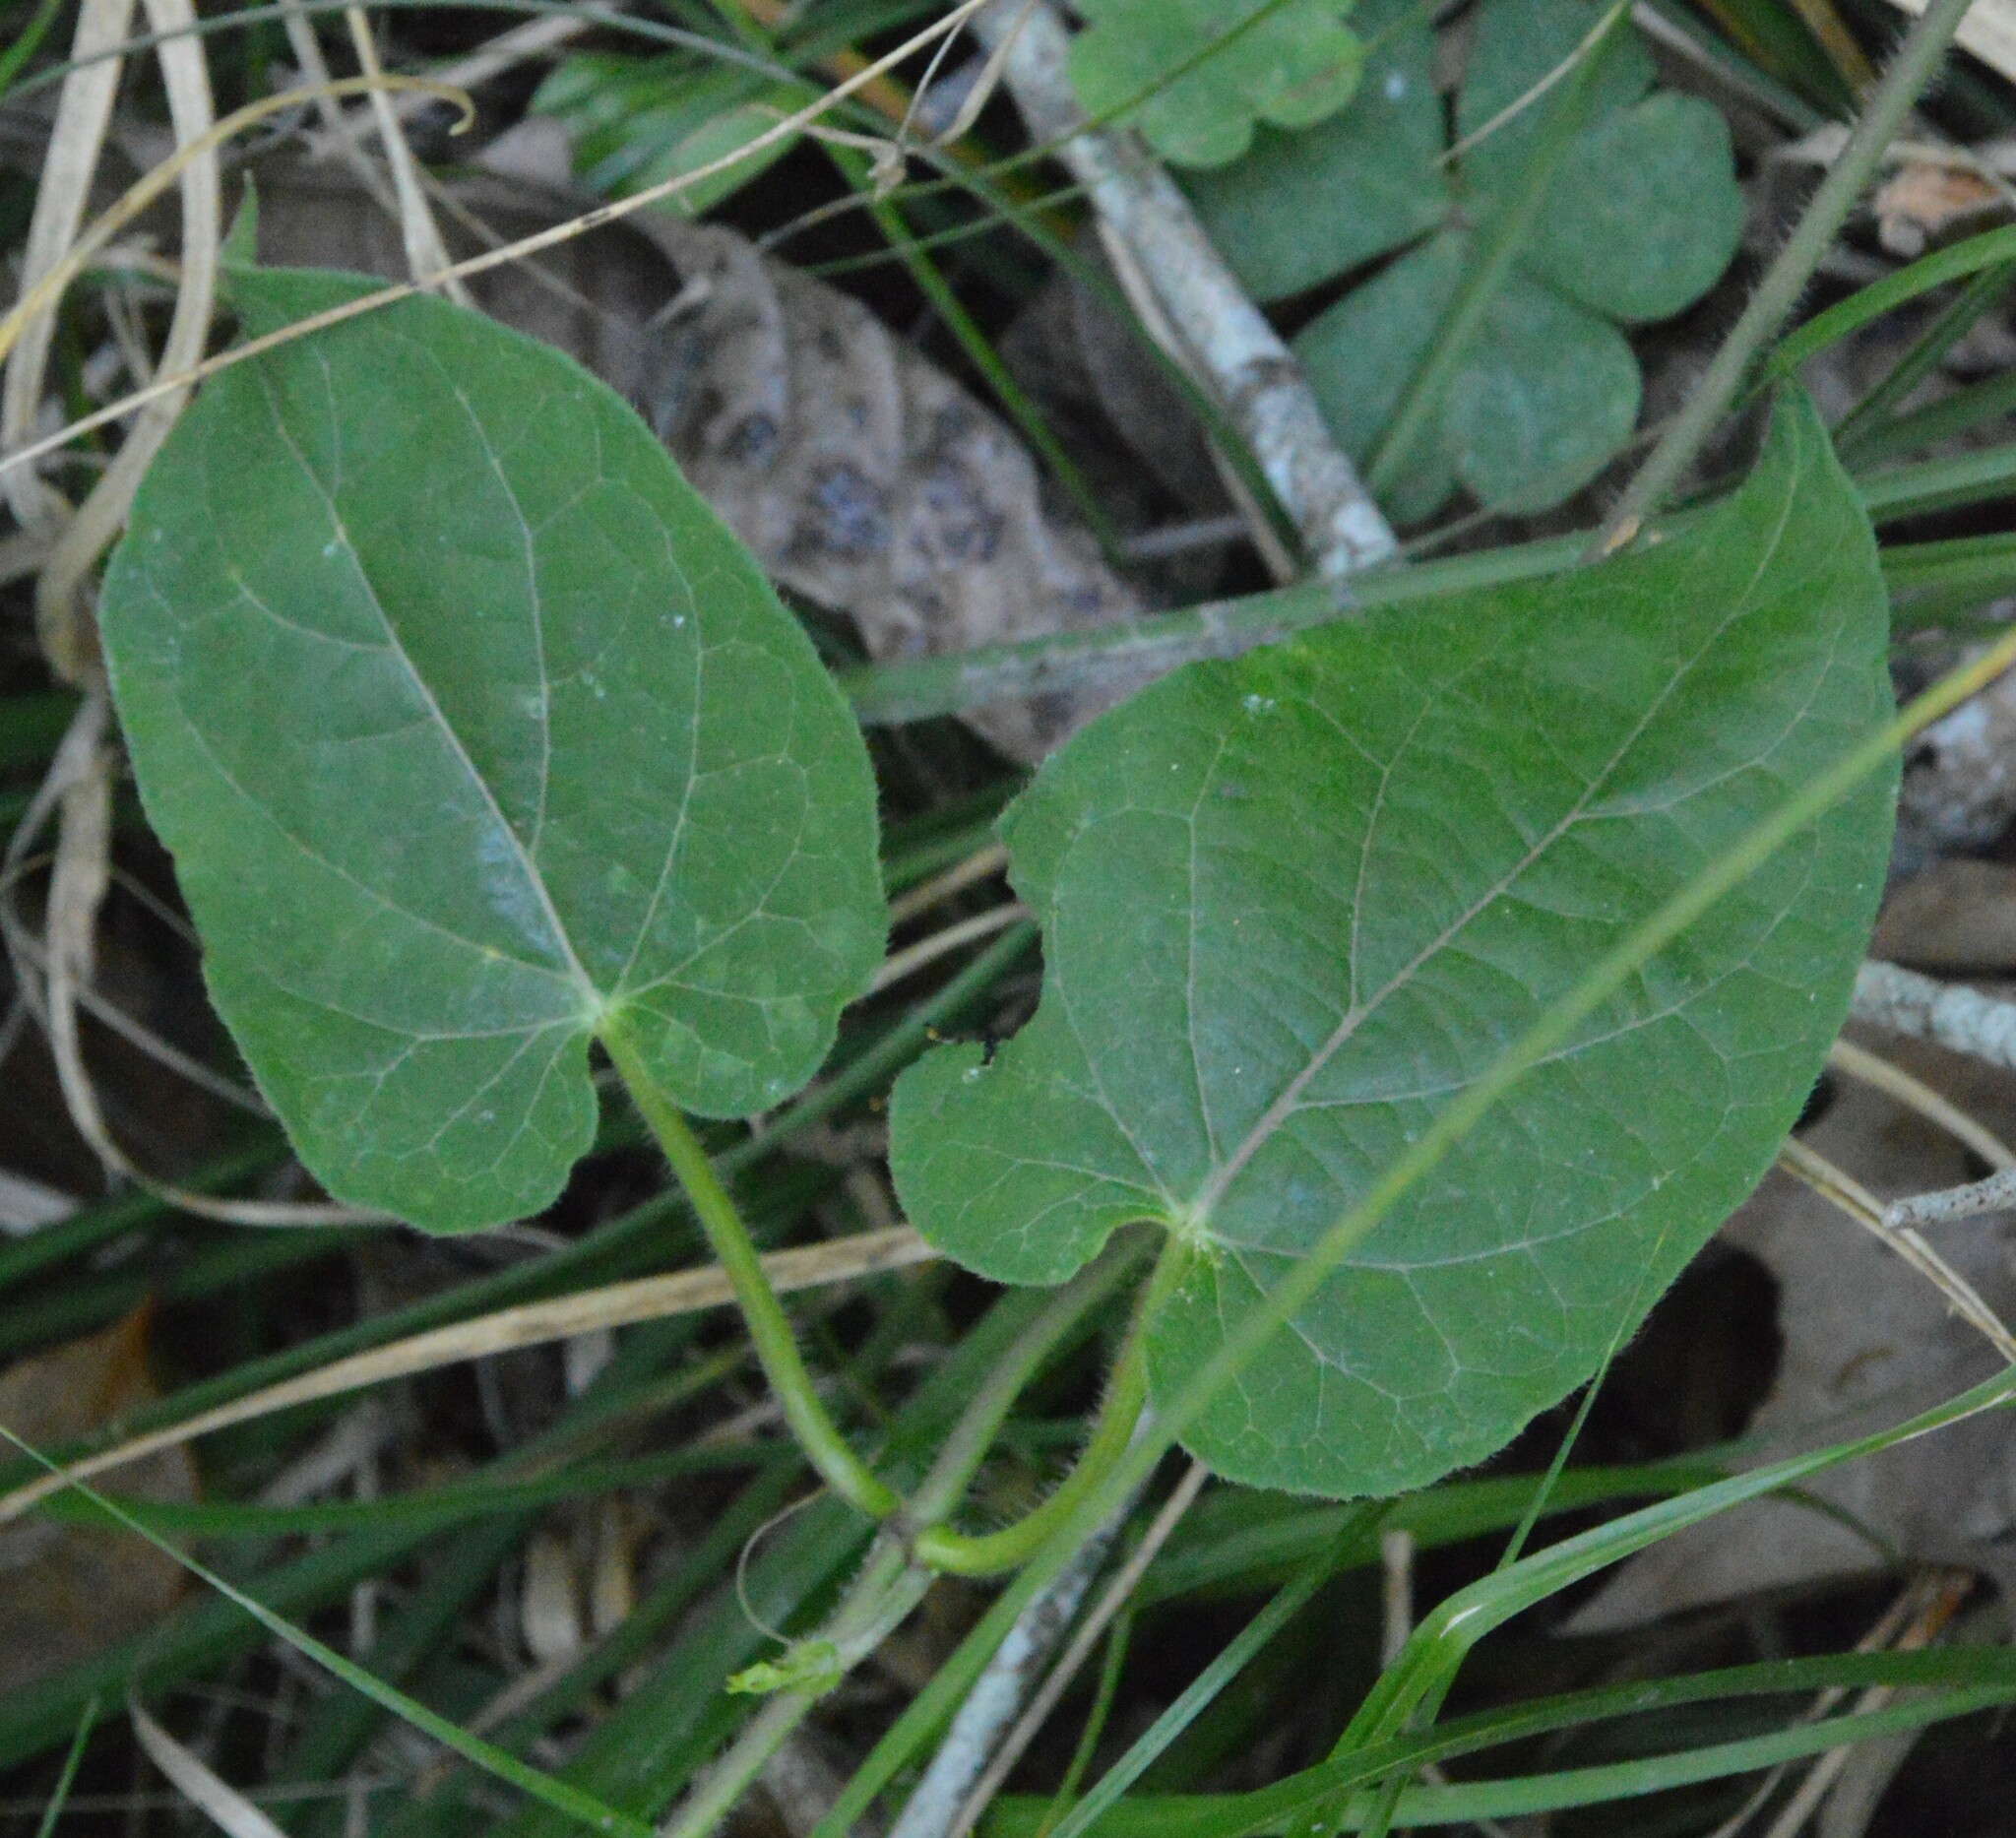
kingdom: Plantae
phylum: Tracheophyta
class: Magnoliopsida
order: Gentianales
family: Apocynaceae
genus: Gonolobus
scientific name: Gonolobus suberosus
